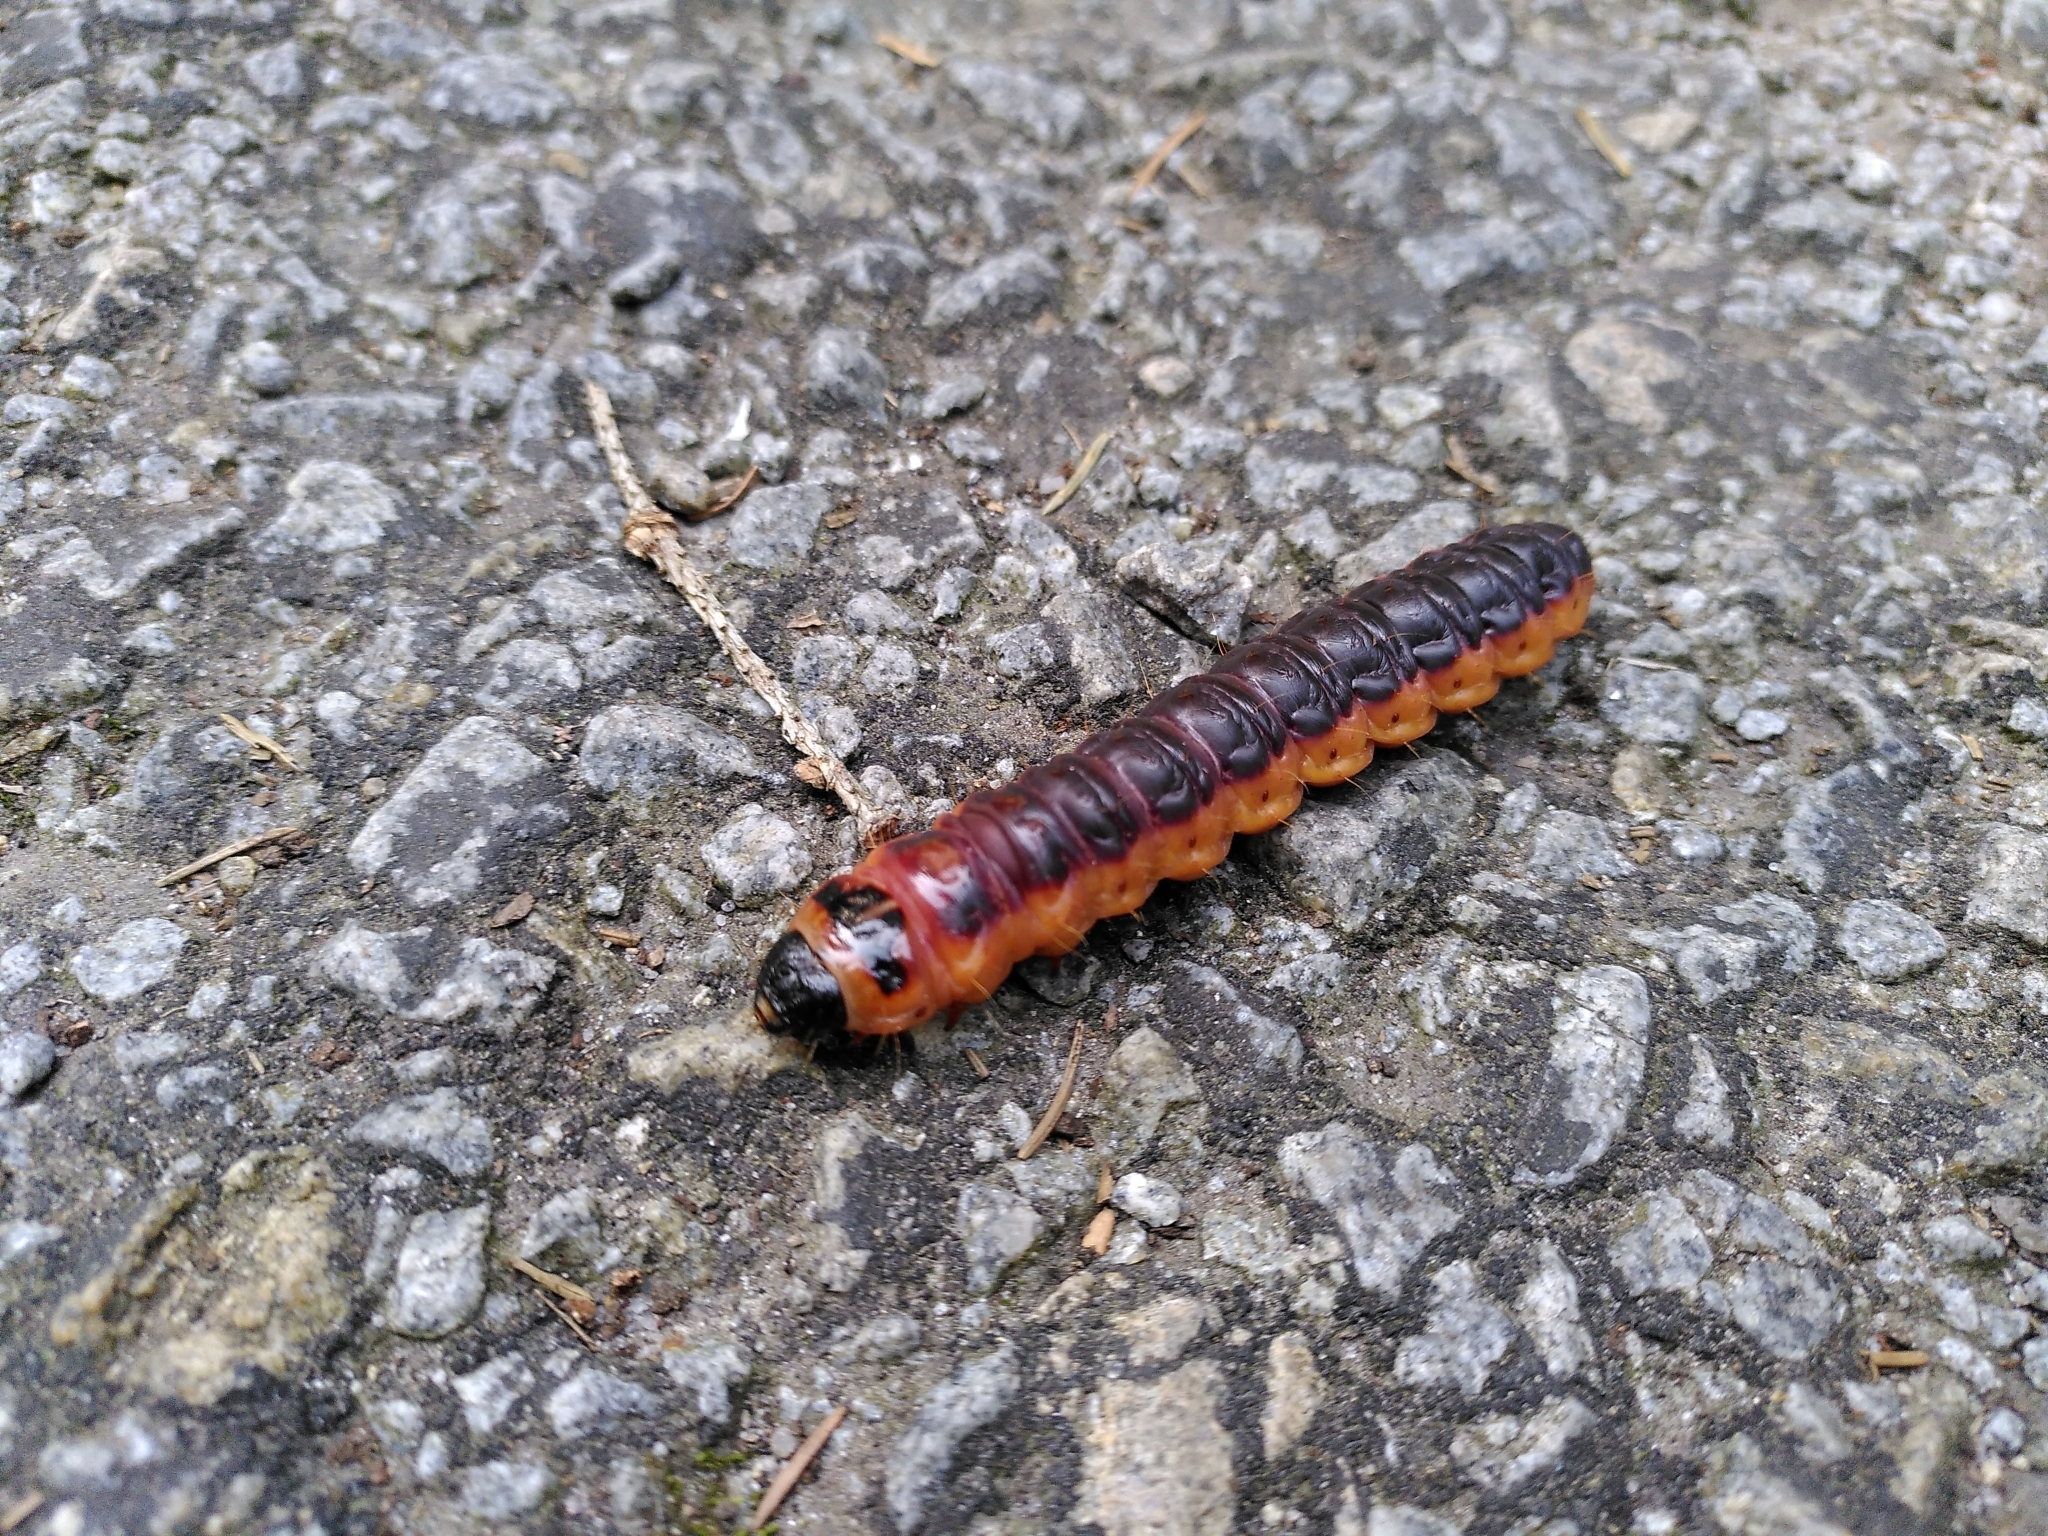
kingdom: Animalia
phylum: Arthropoda
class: Insecta
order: Lepidoptera
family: Cossidae
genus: Cossus
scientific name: Cossus cossus
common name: Goat moth
